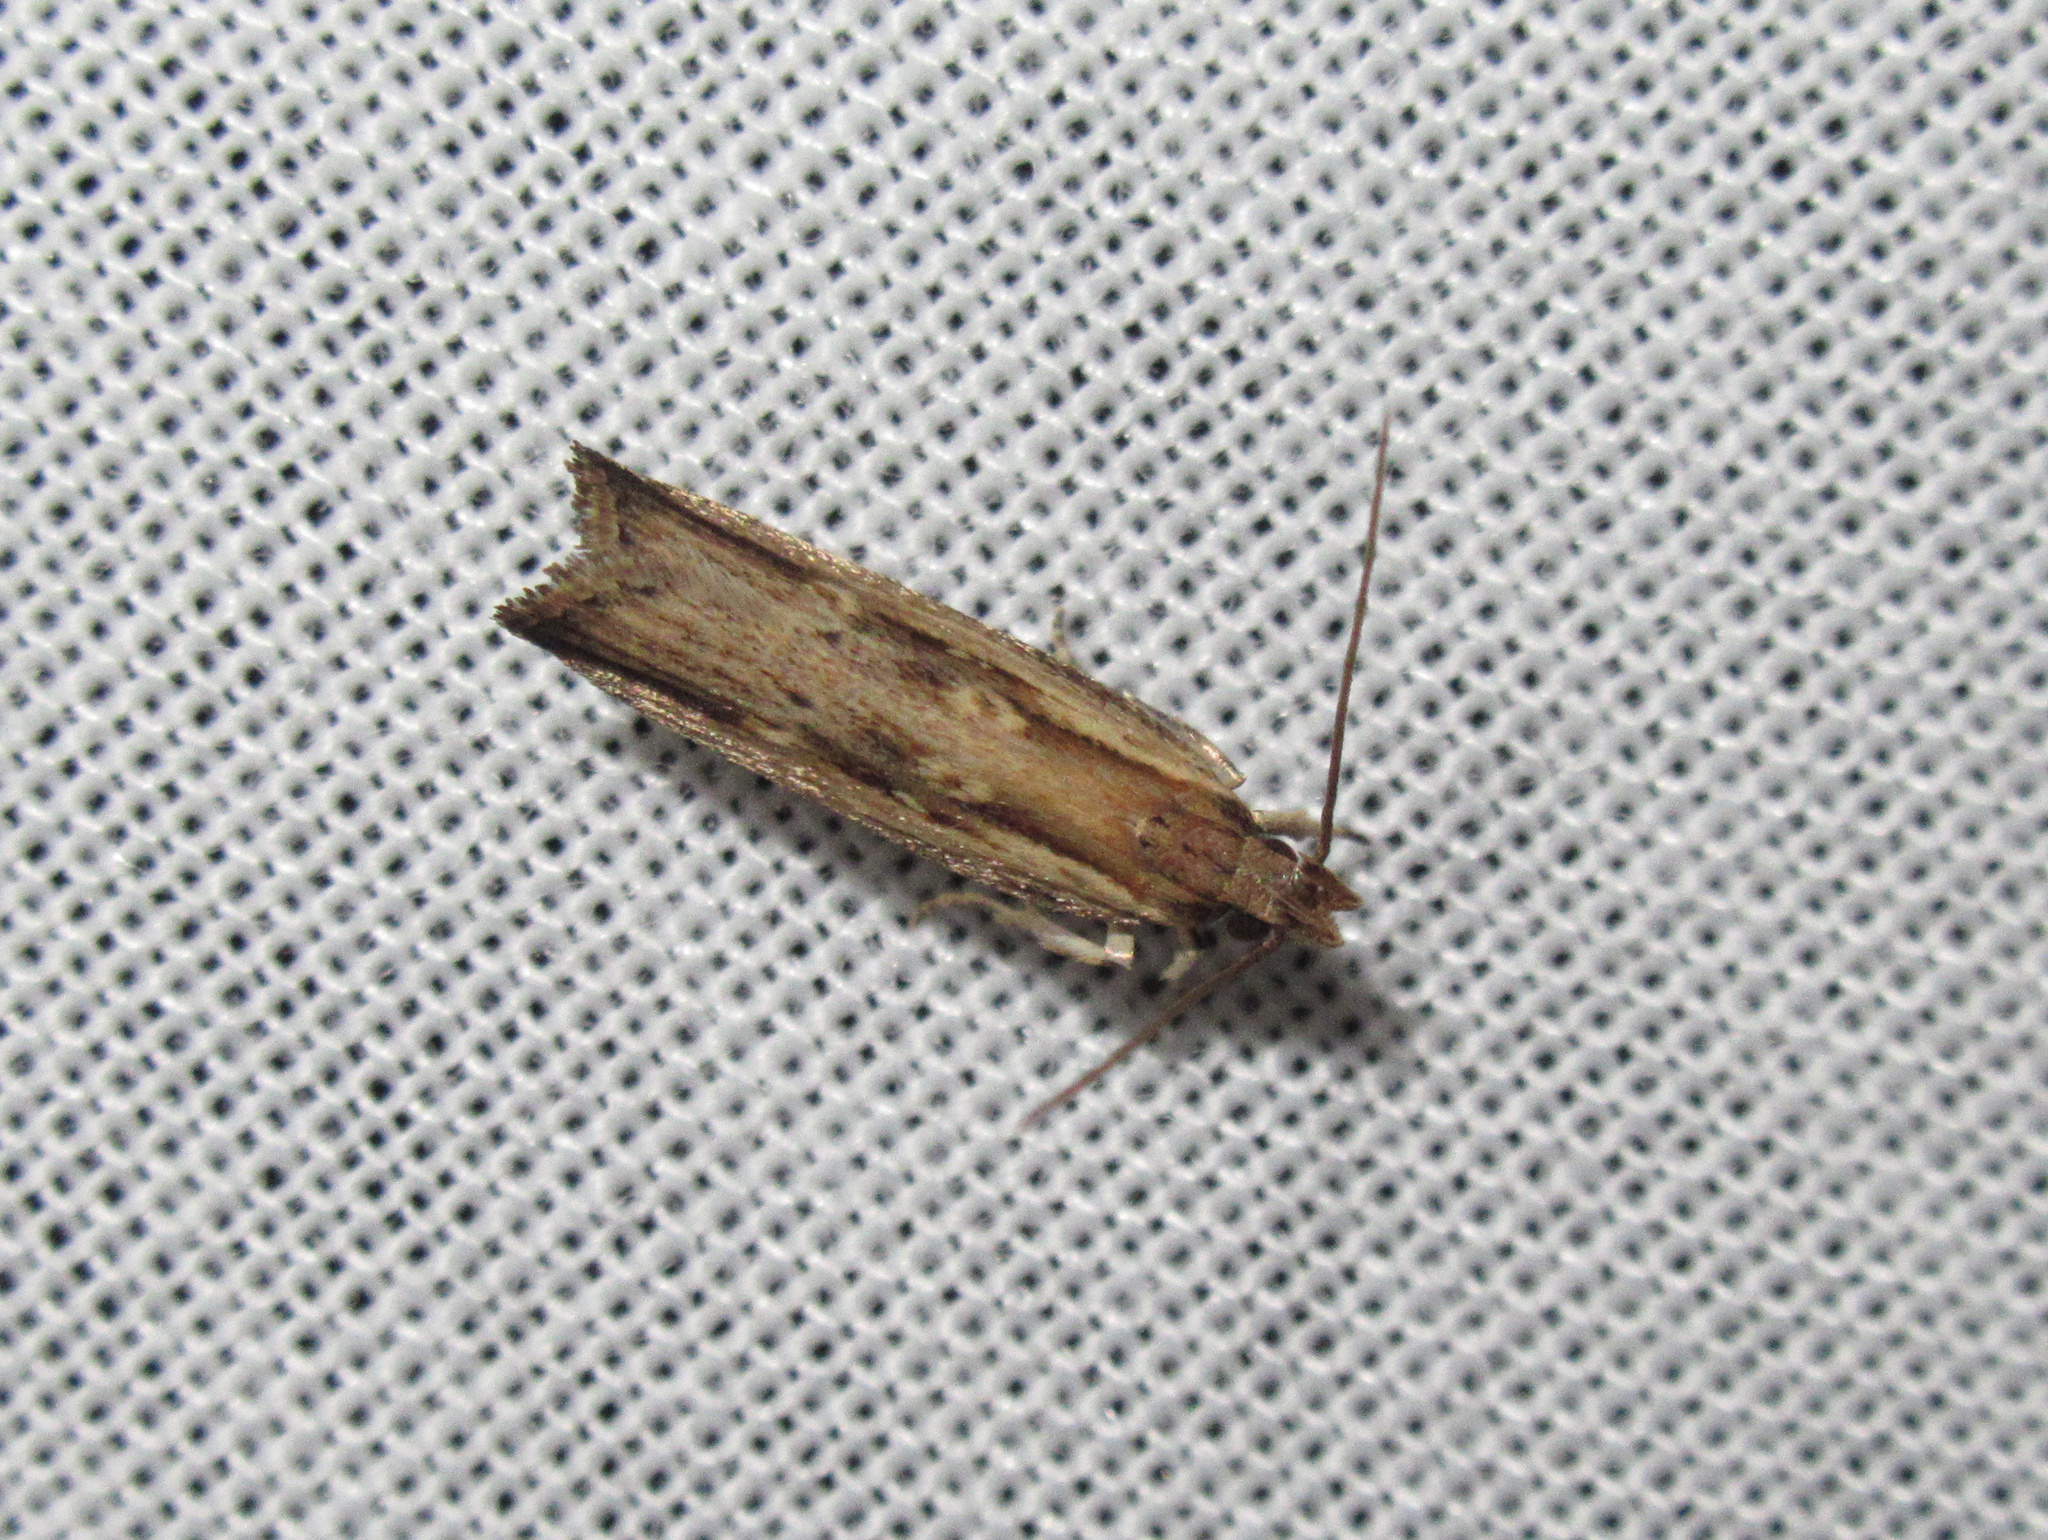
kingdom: Animalia
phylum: Arthropoda
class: Insecta
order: Lepidoptera
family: Gelechiidae
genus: Helcystogramma
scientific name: Helcystogramma phryganitis
